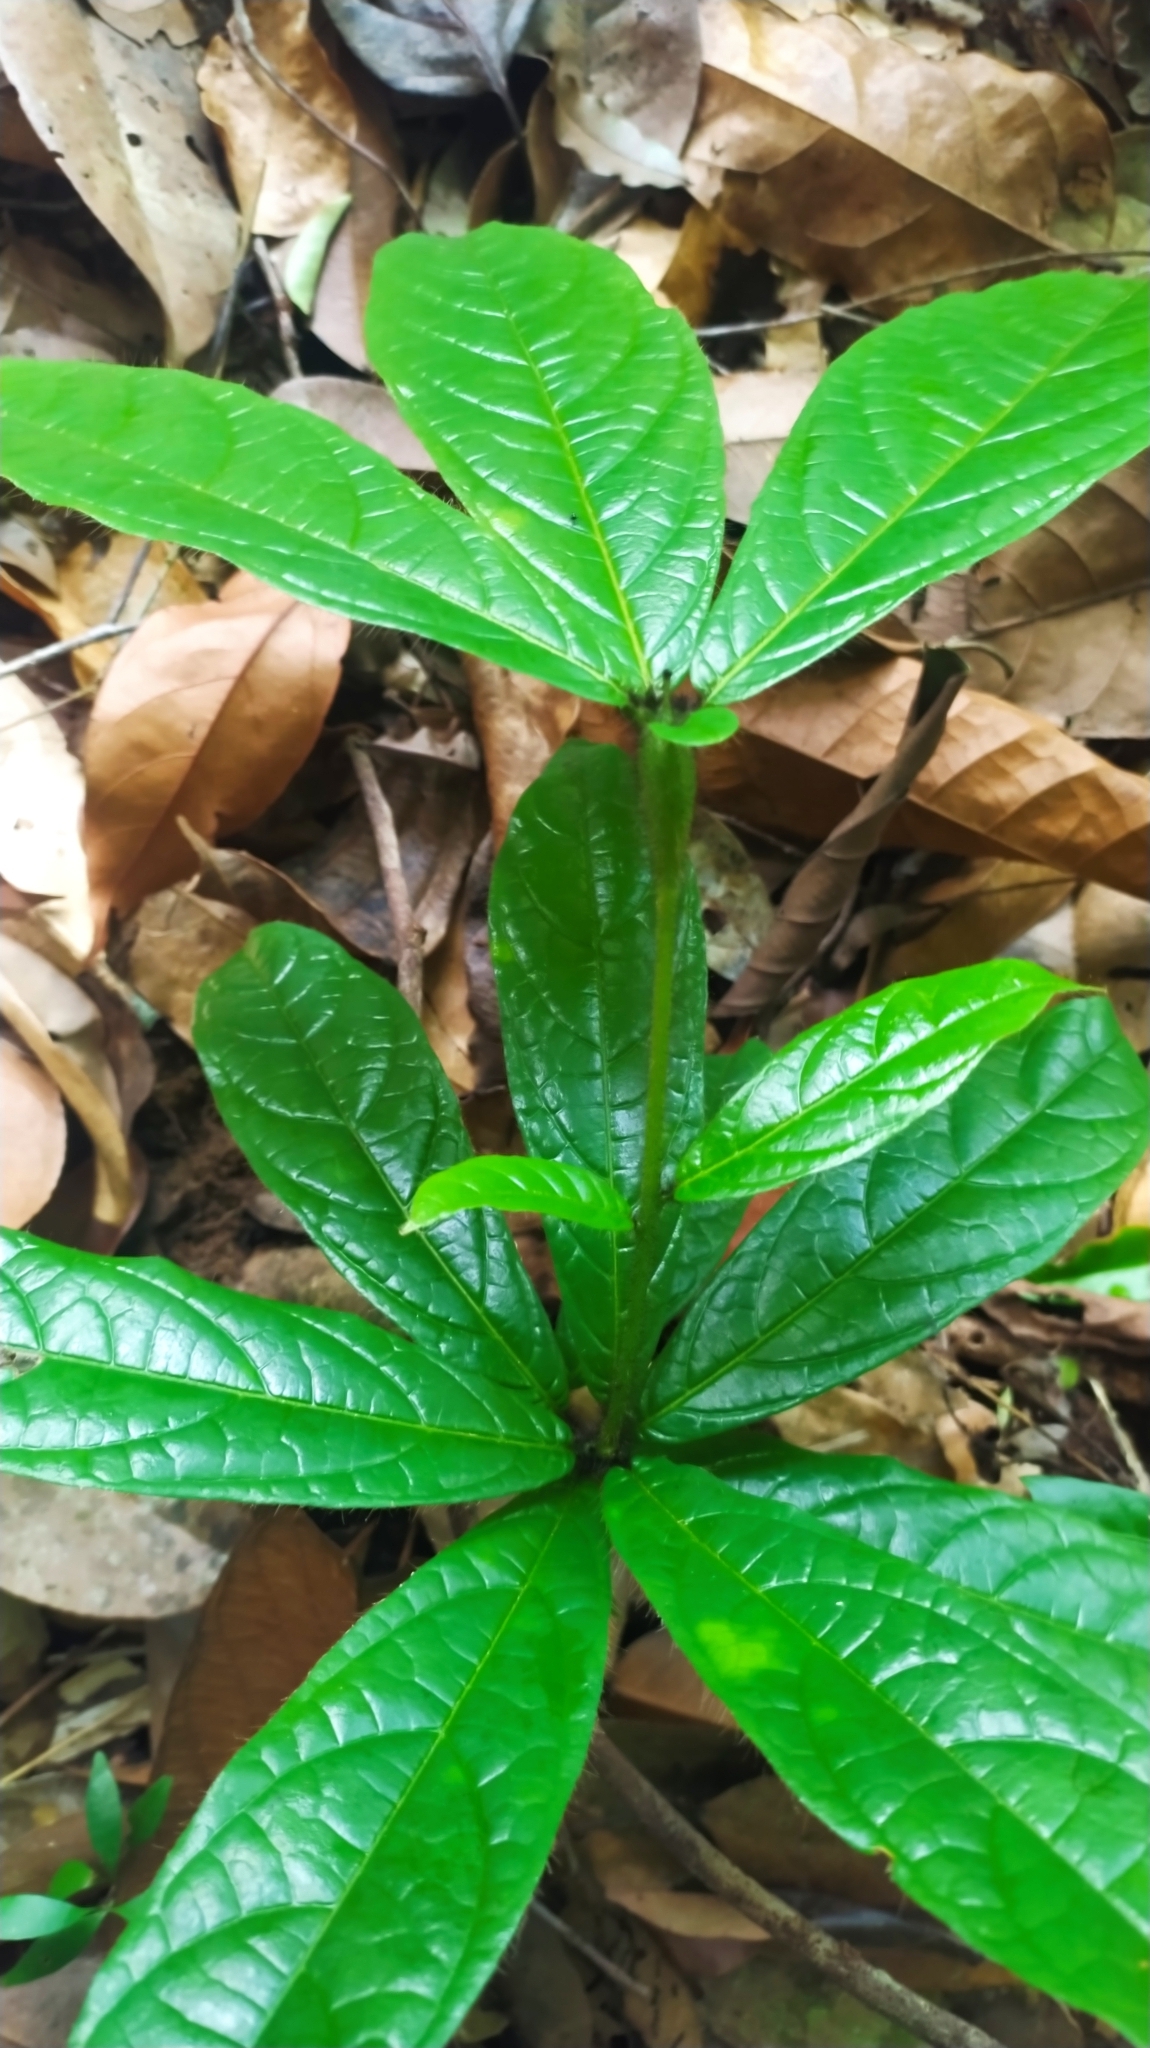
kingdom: Plantae
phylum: Tracheophyta
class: Magnoliopsida
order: Boraginales
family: Cordiaceae
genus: Cordia
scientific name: Cordia nodosa
